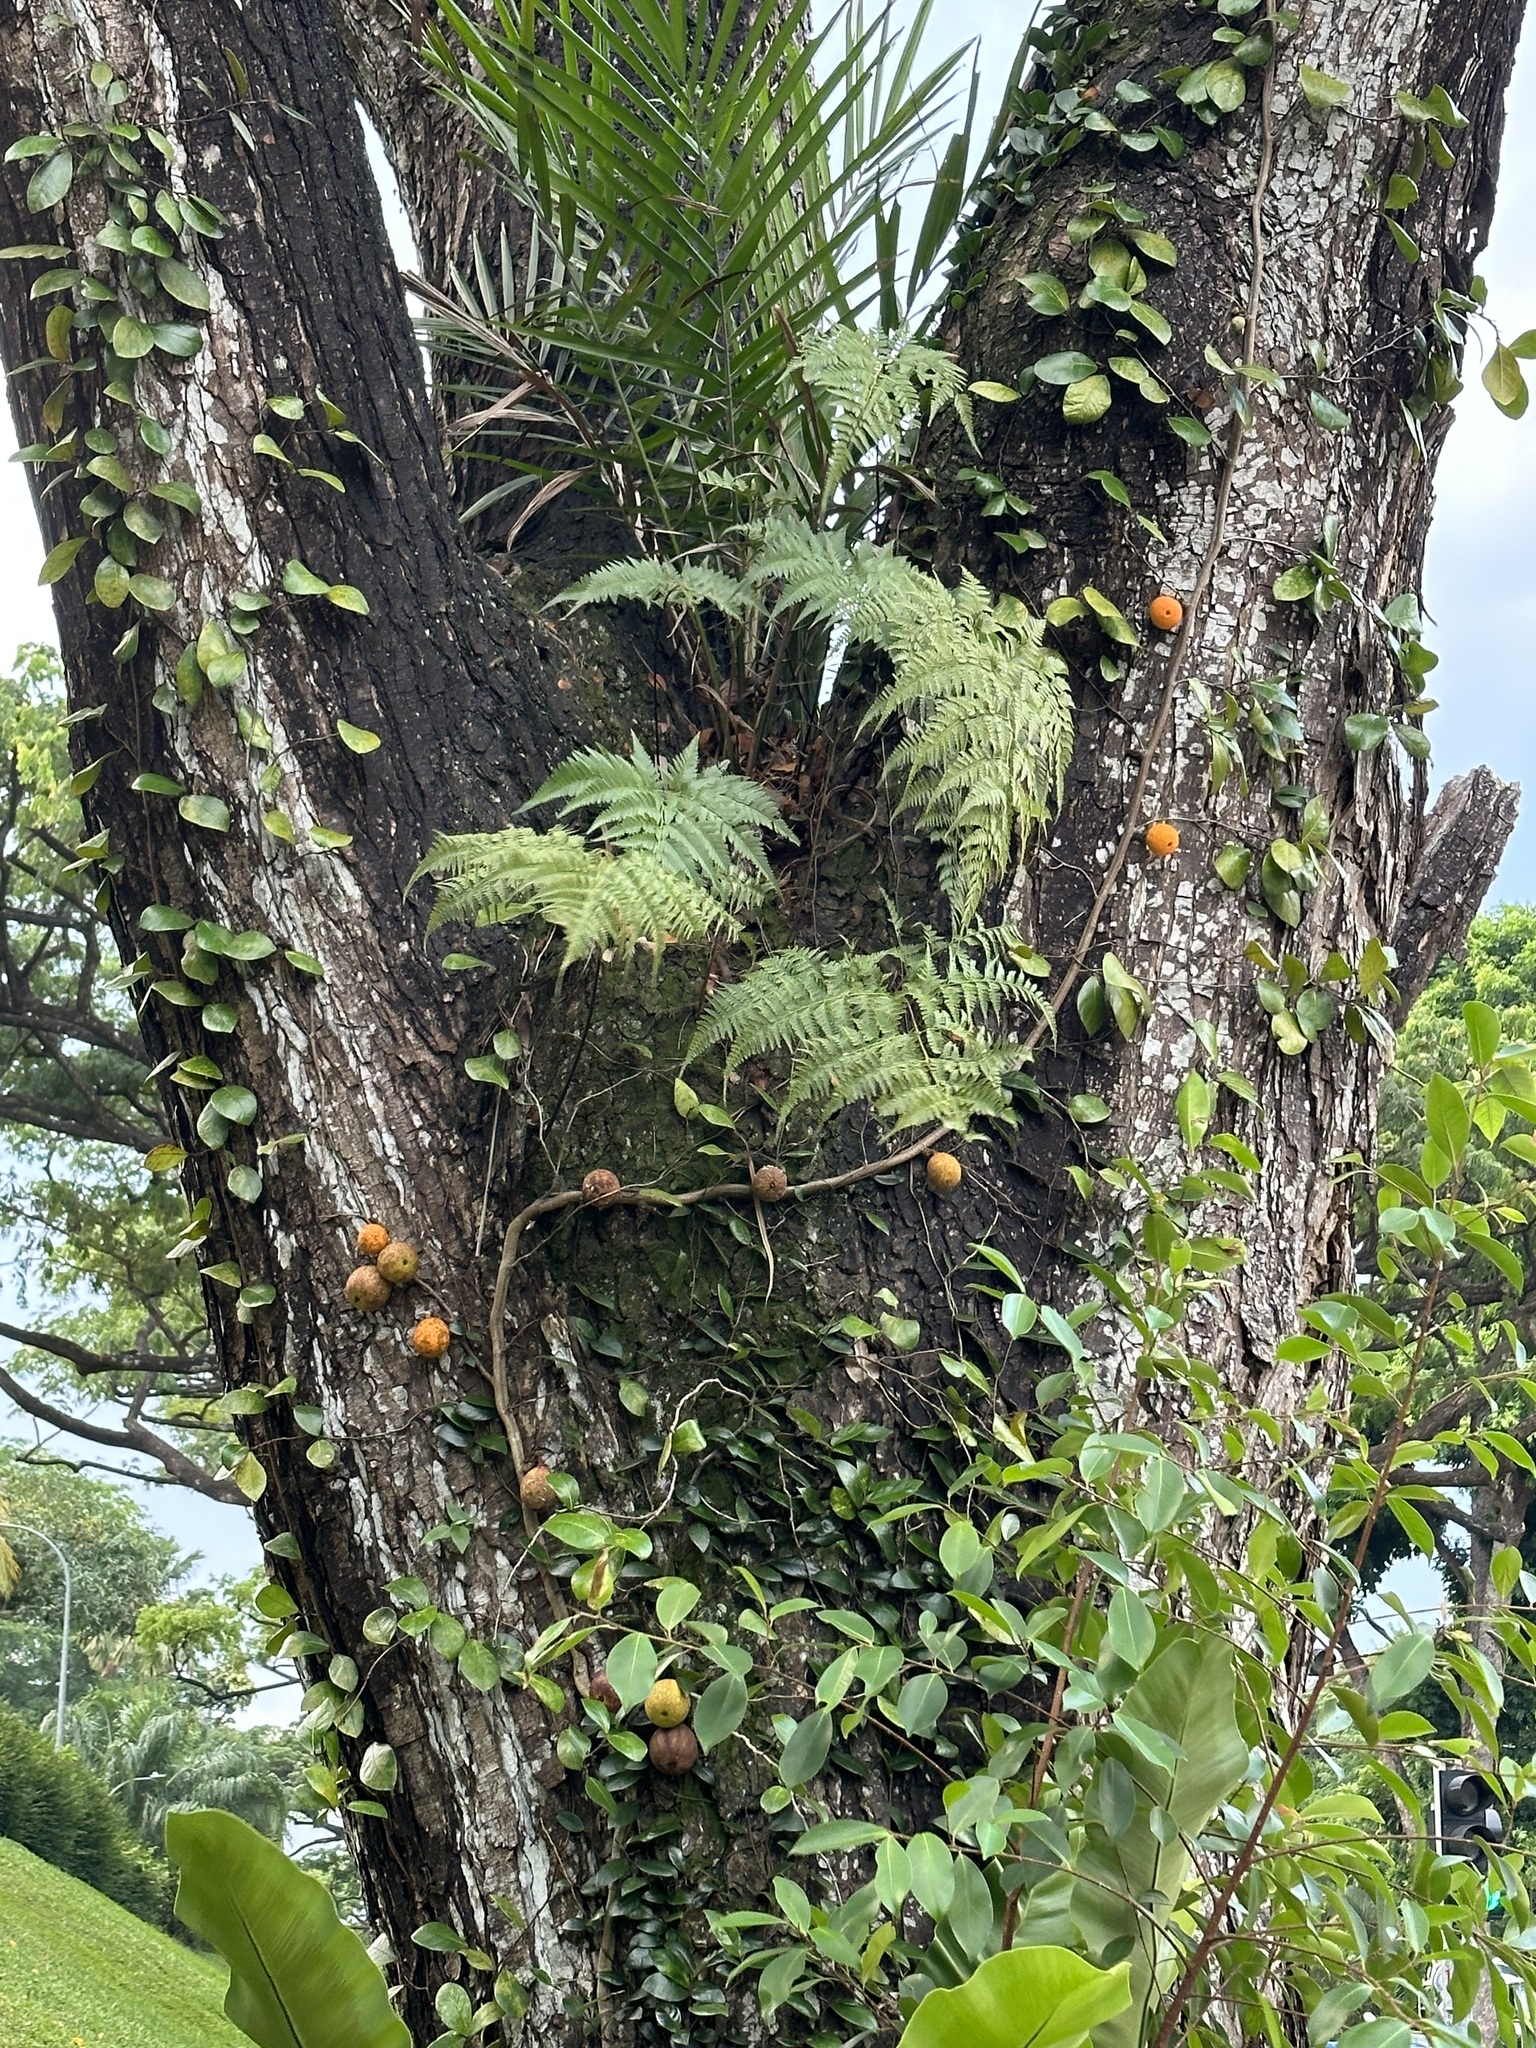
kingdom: Plantae
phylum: Tracheophyta
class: Magnoliopsida
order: Rosales
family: Moraceae
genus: Ficus
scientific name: Ficus punctata
